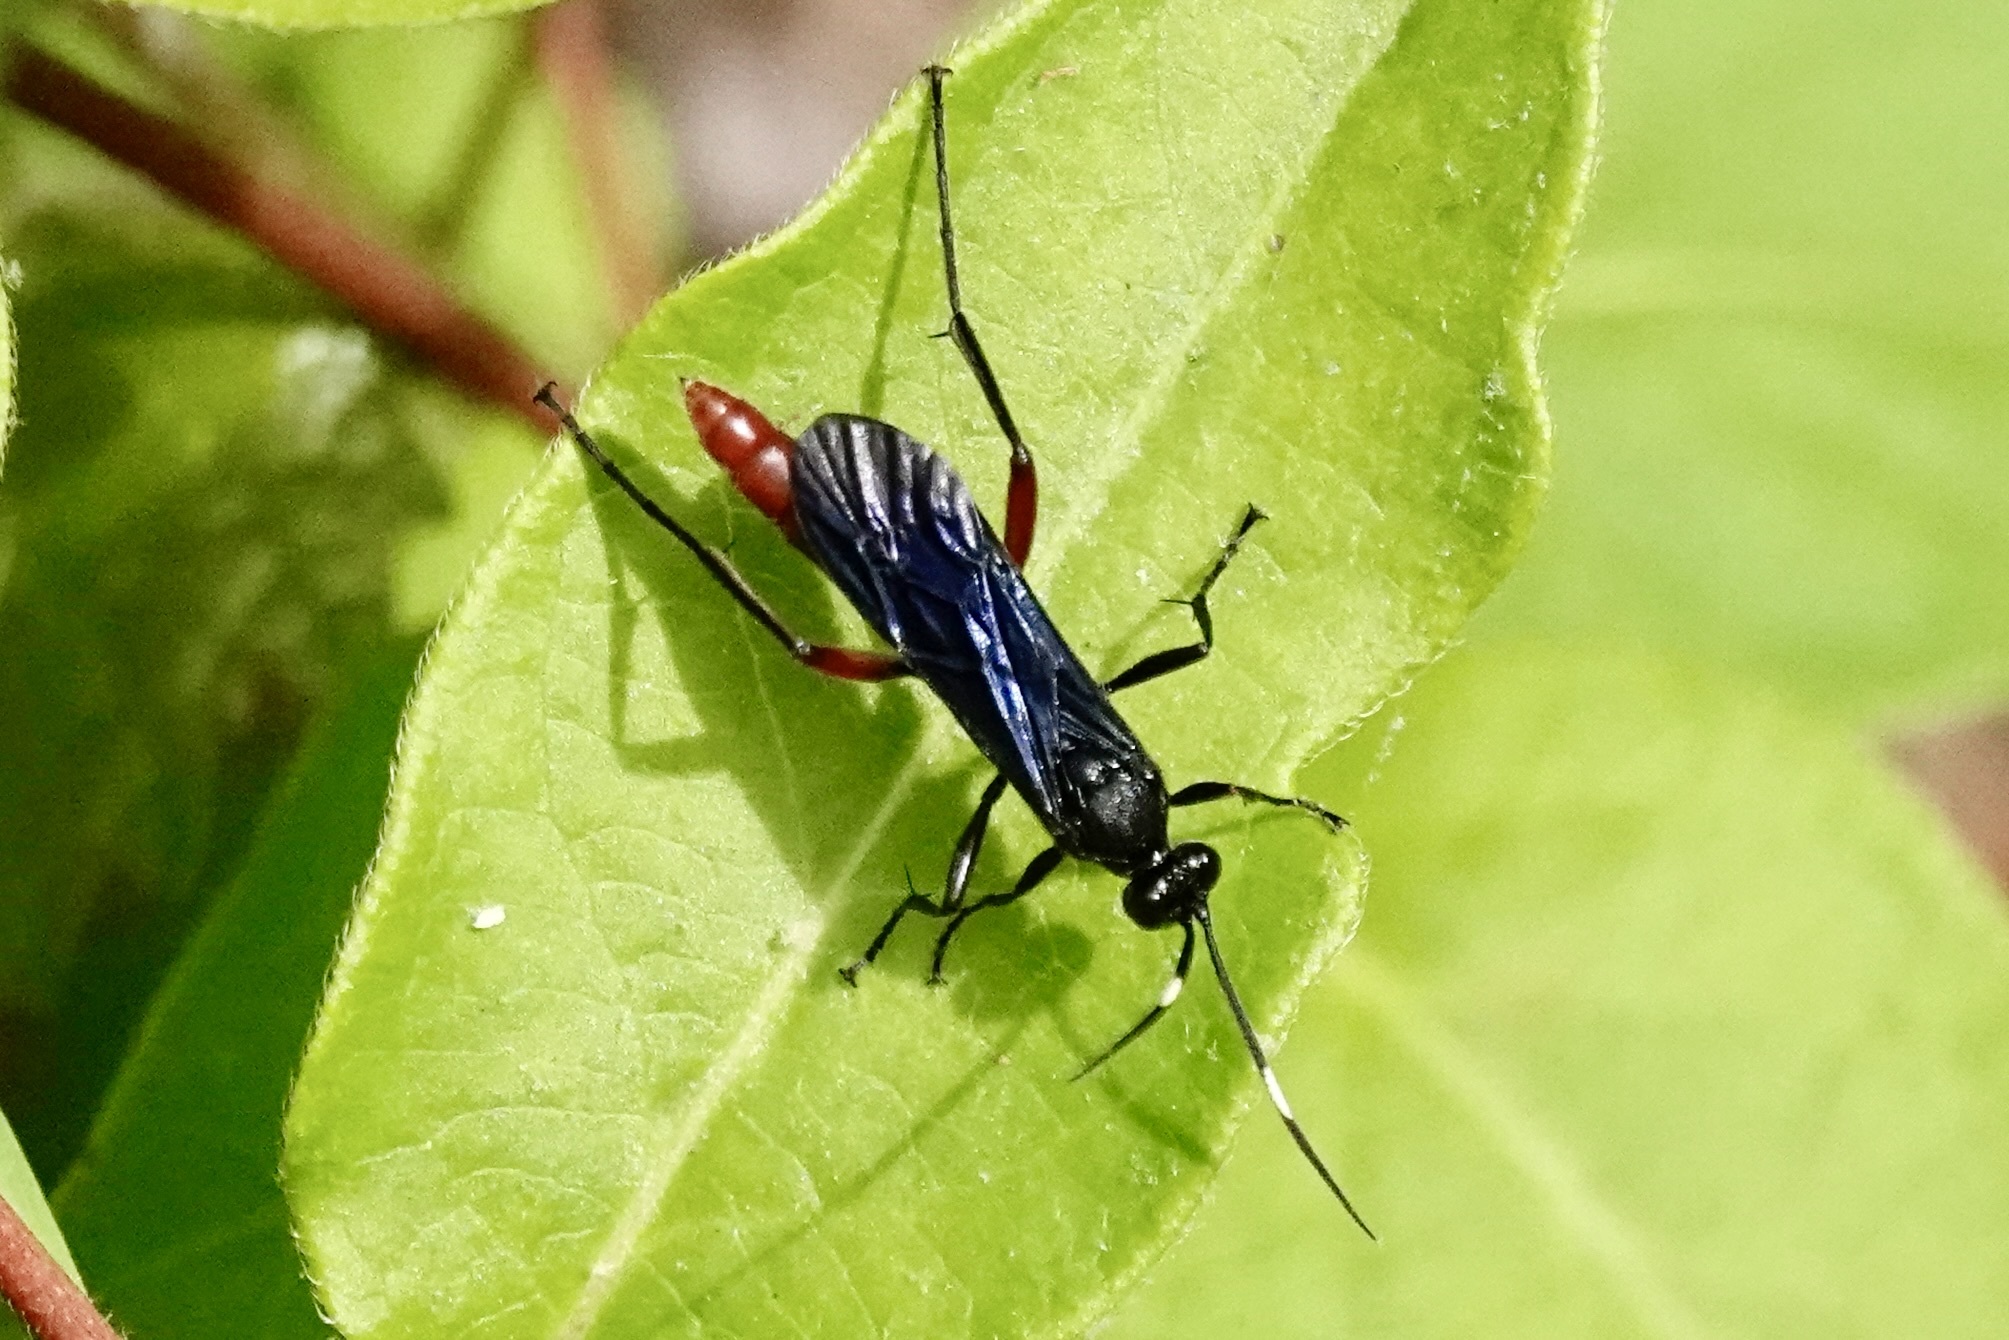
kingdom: Animalia
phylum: Arthropoda
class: Insecta
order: Hymenoptera
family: Ichneumonidae
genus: Limonethe
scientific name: Limonethe maurator
